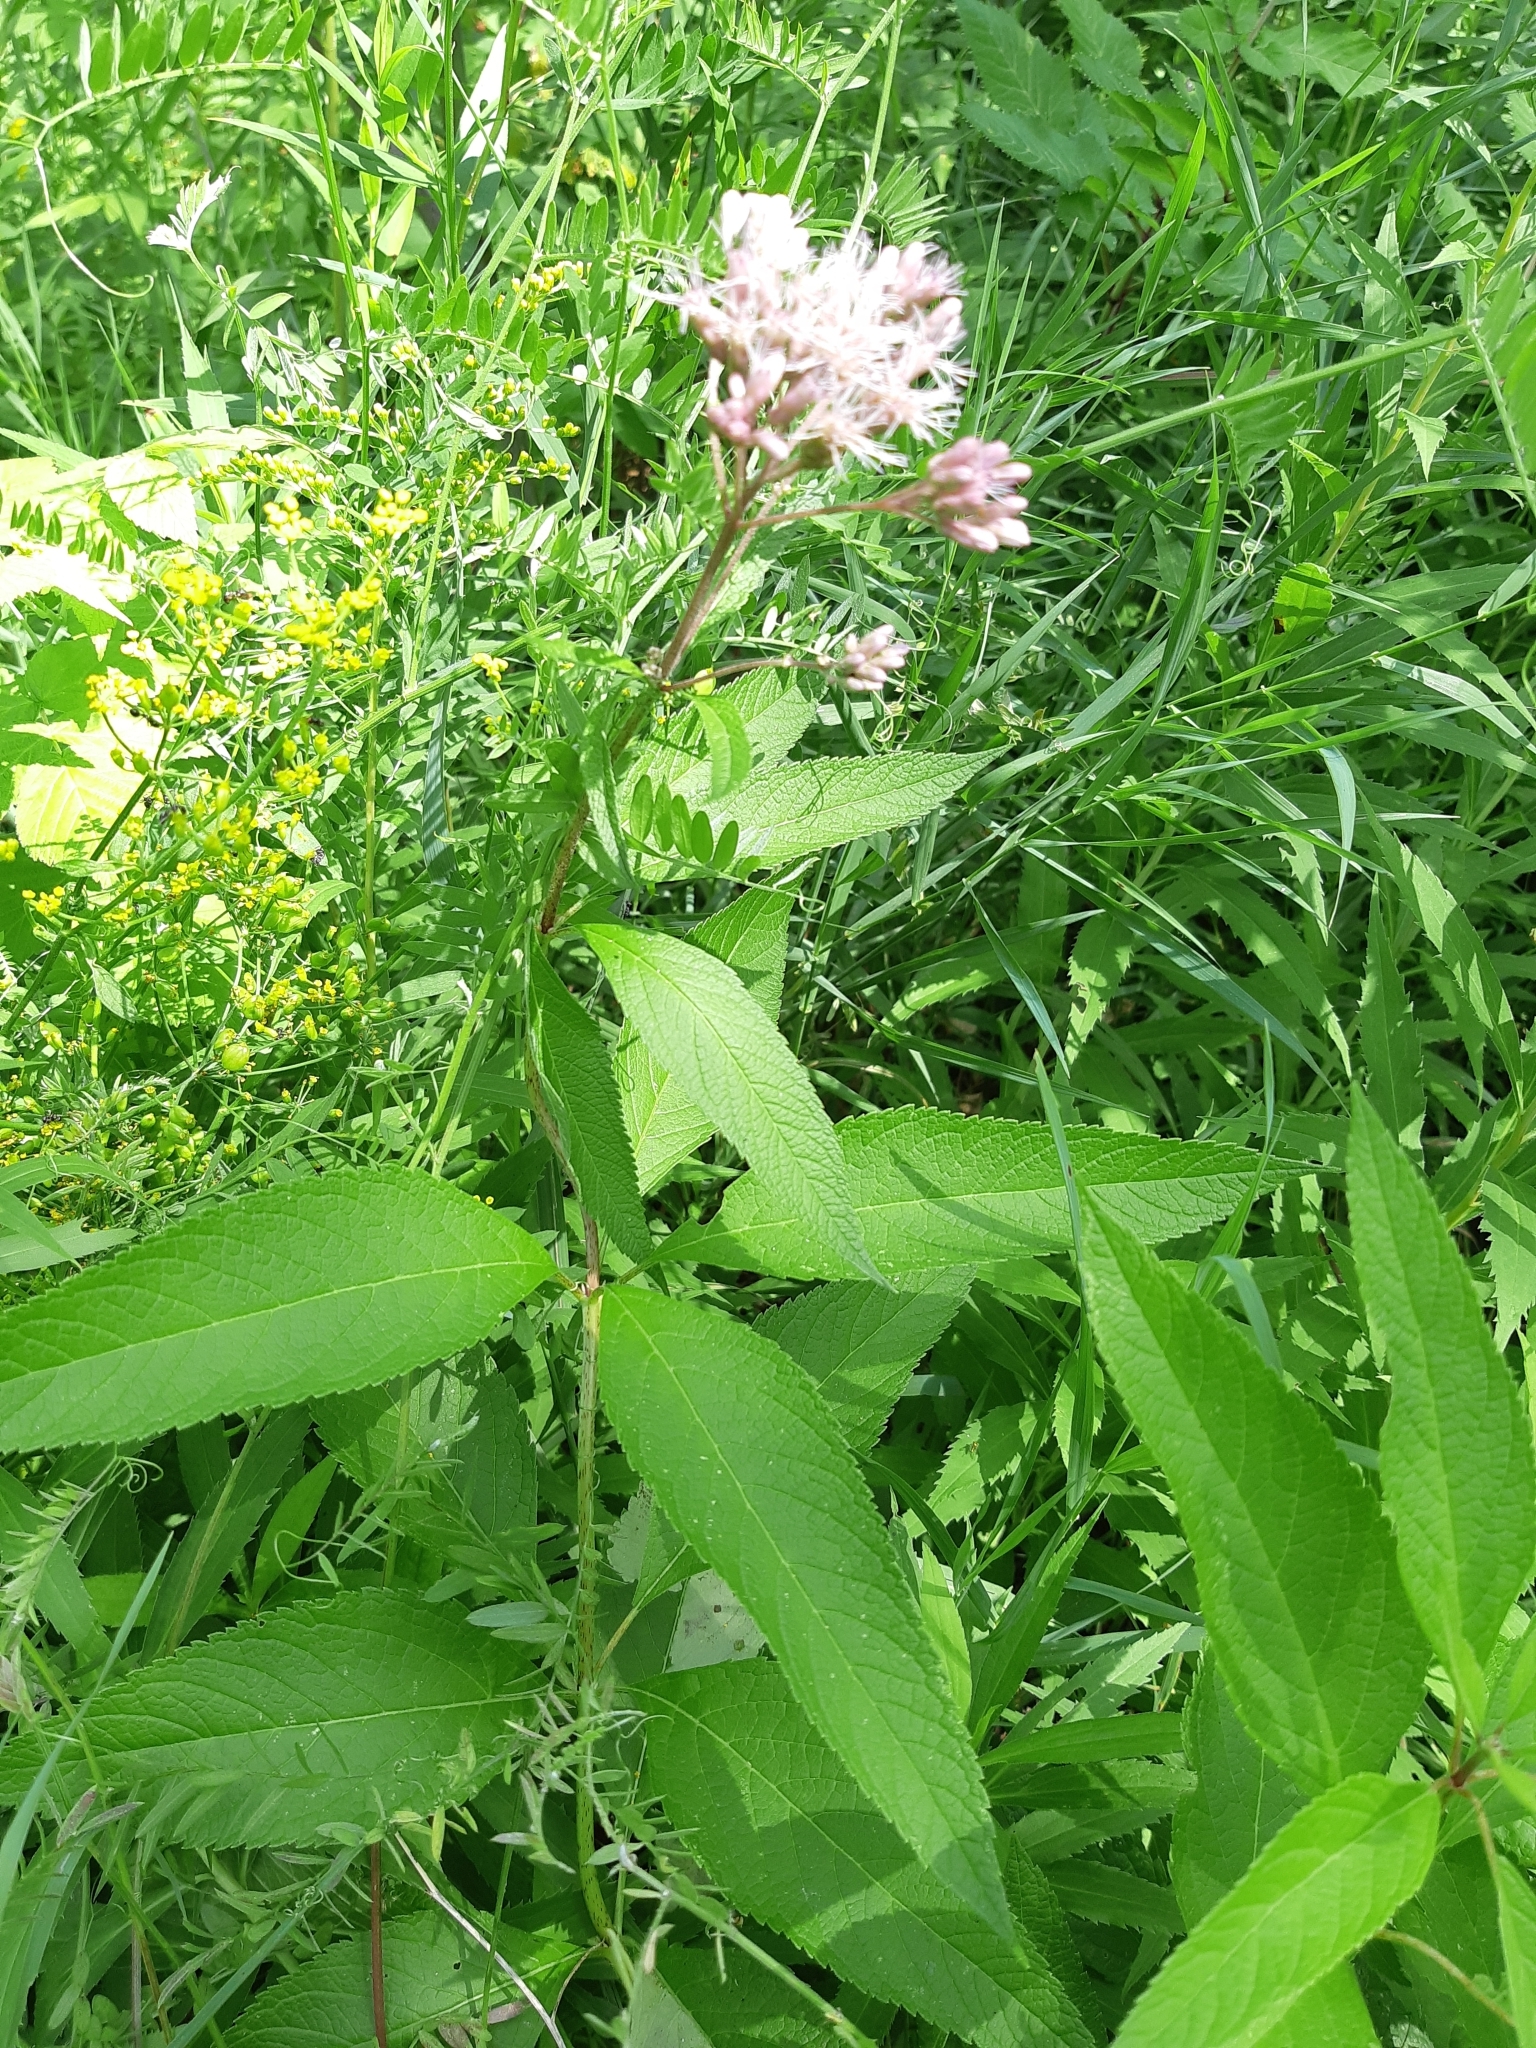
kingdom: Plantae
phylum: Tracheophyta
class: Magnoliopsida
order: Asterales
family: Asteraceae
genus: Eutrochium
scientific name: Eutrochium maculatum
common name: Spotted joe pye weed
